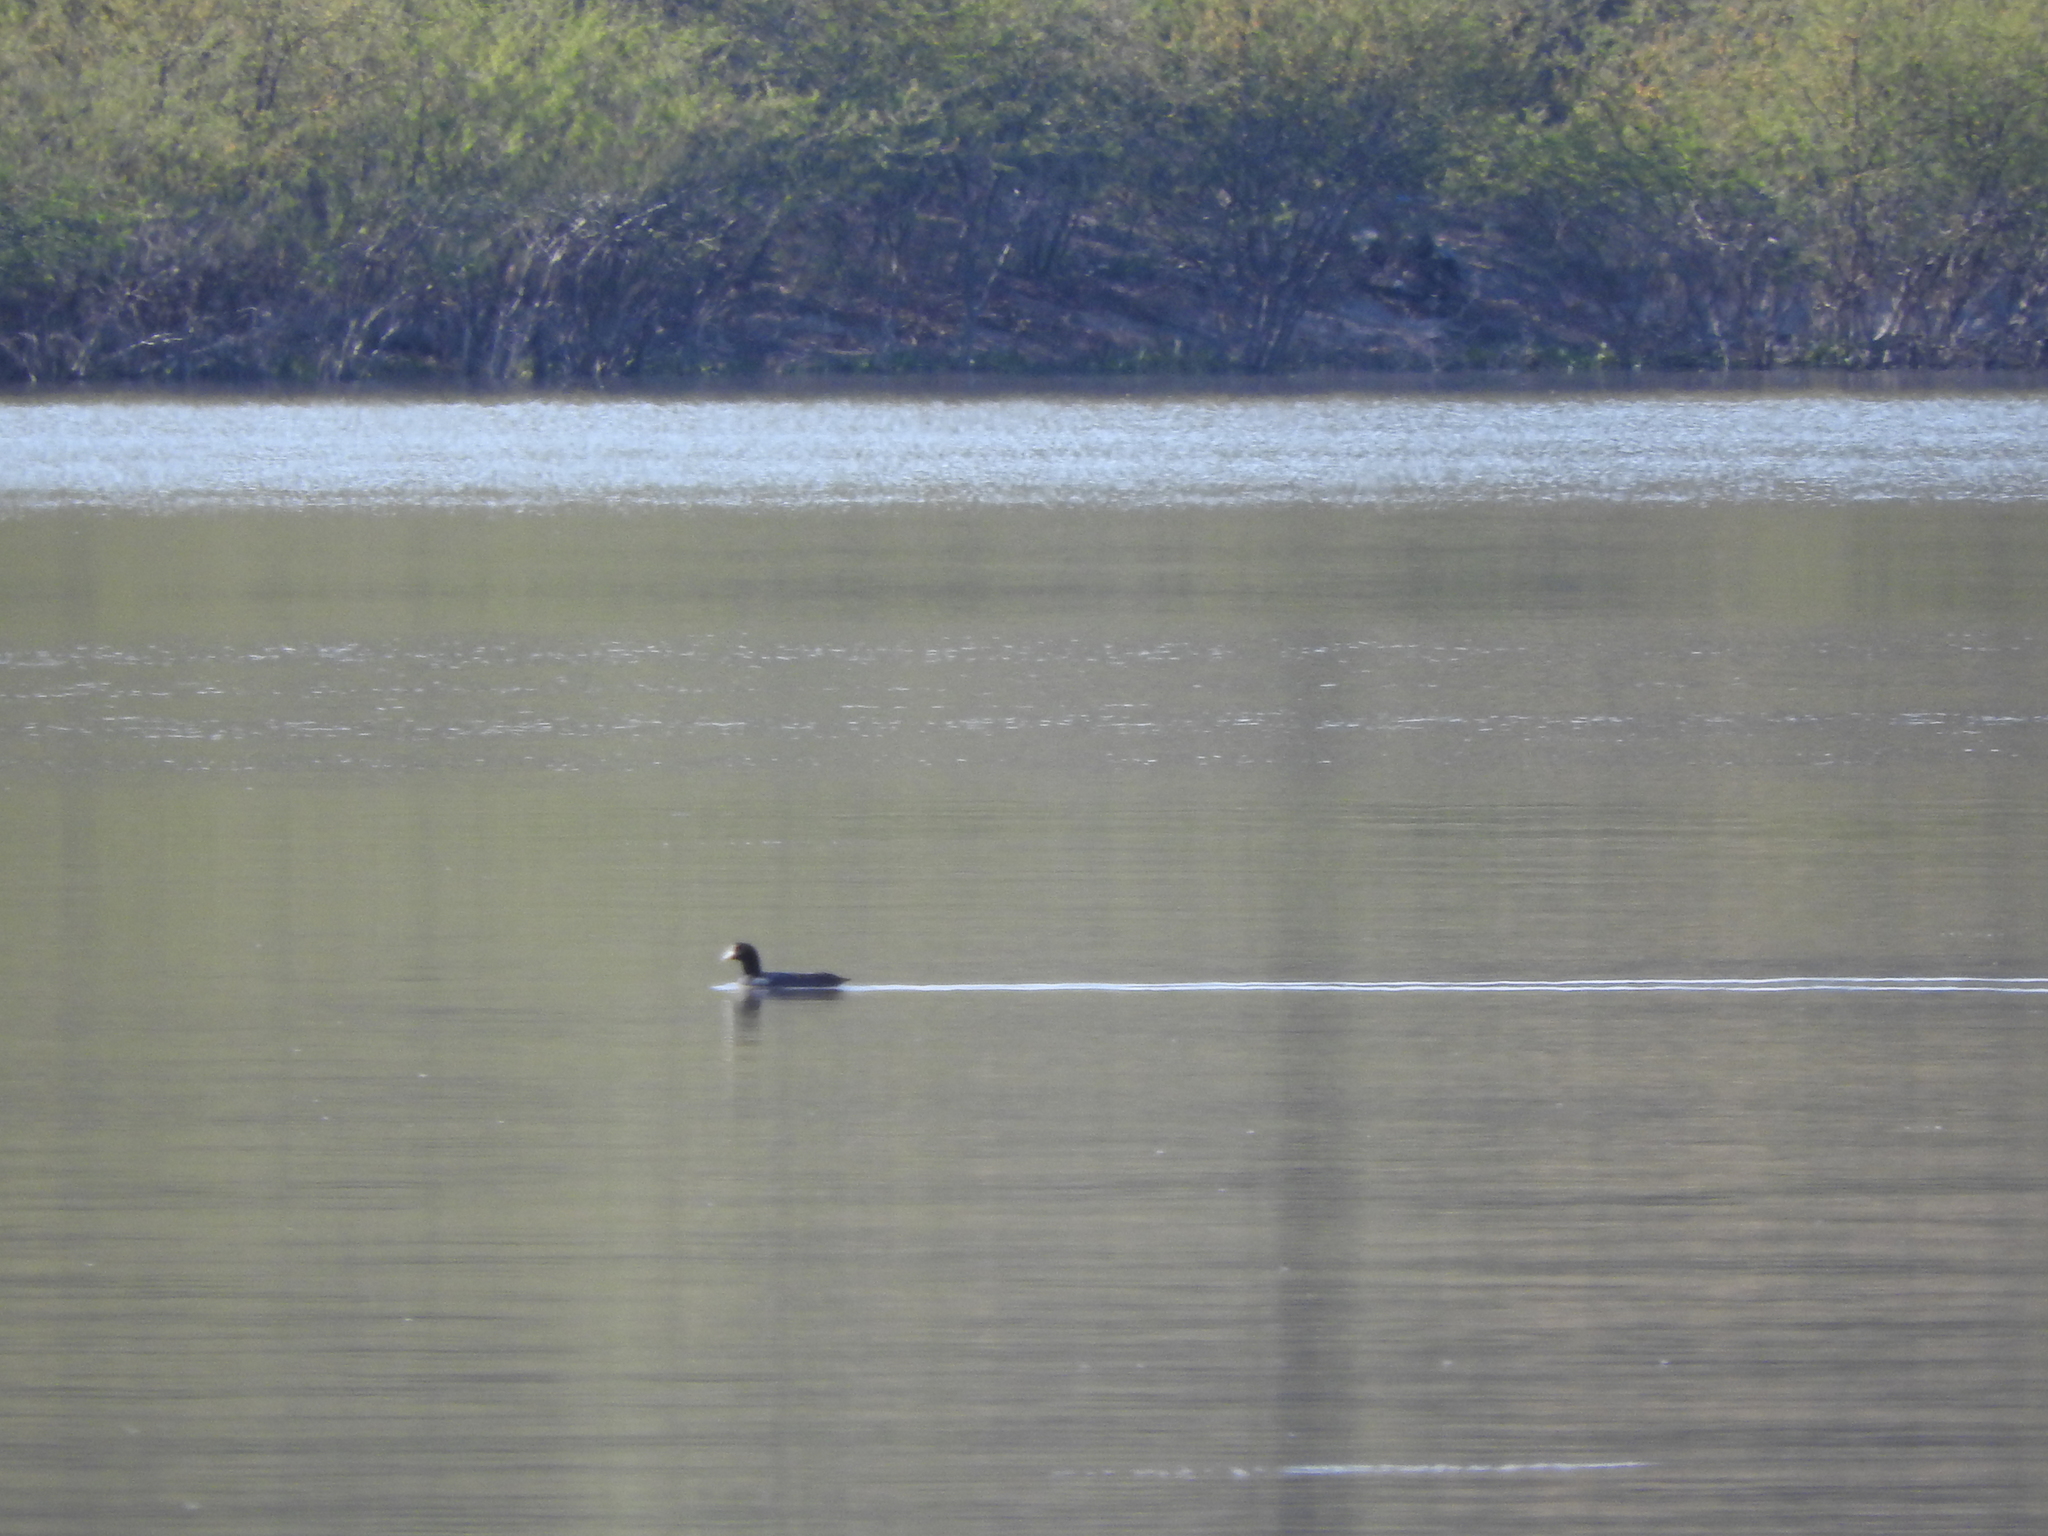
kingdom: Animalia
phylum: Chordata
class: Aves
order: Gruiformes
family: Rallidae
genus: Fulica
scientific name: Fulica americana
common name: American coot
